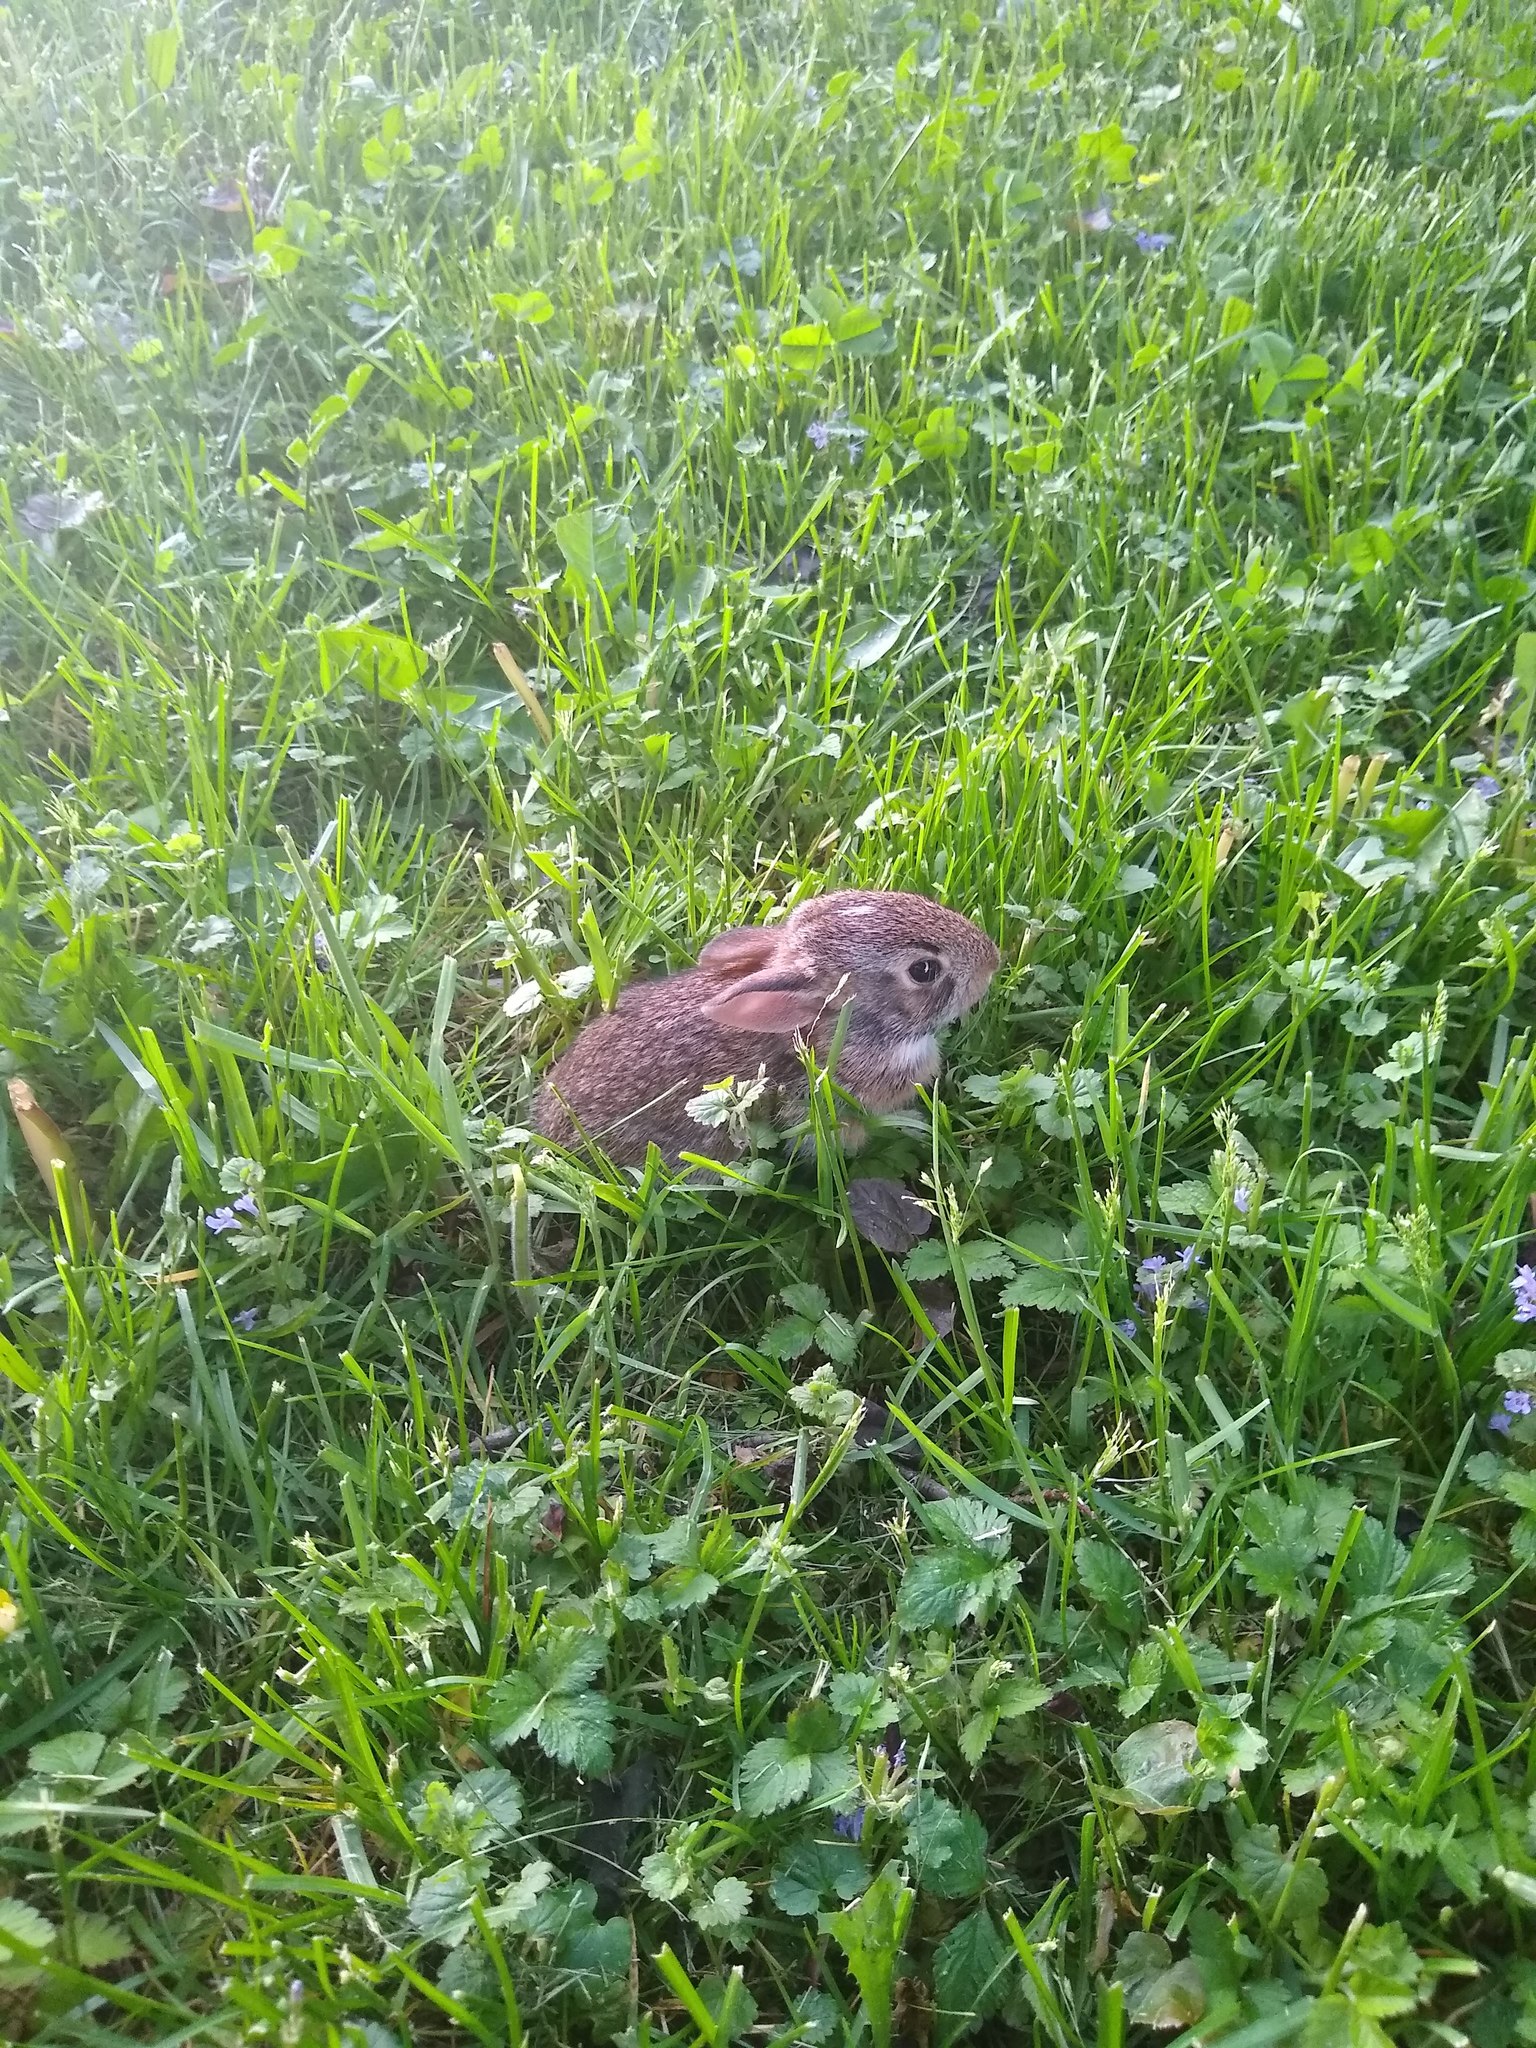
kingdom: Animalia
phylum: Chordata
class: Mammalia
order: Lagomorpha
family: Leporidae
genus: Sylvilagus
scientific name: Sylvilagus floridanus
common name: Eastern cottontail
